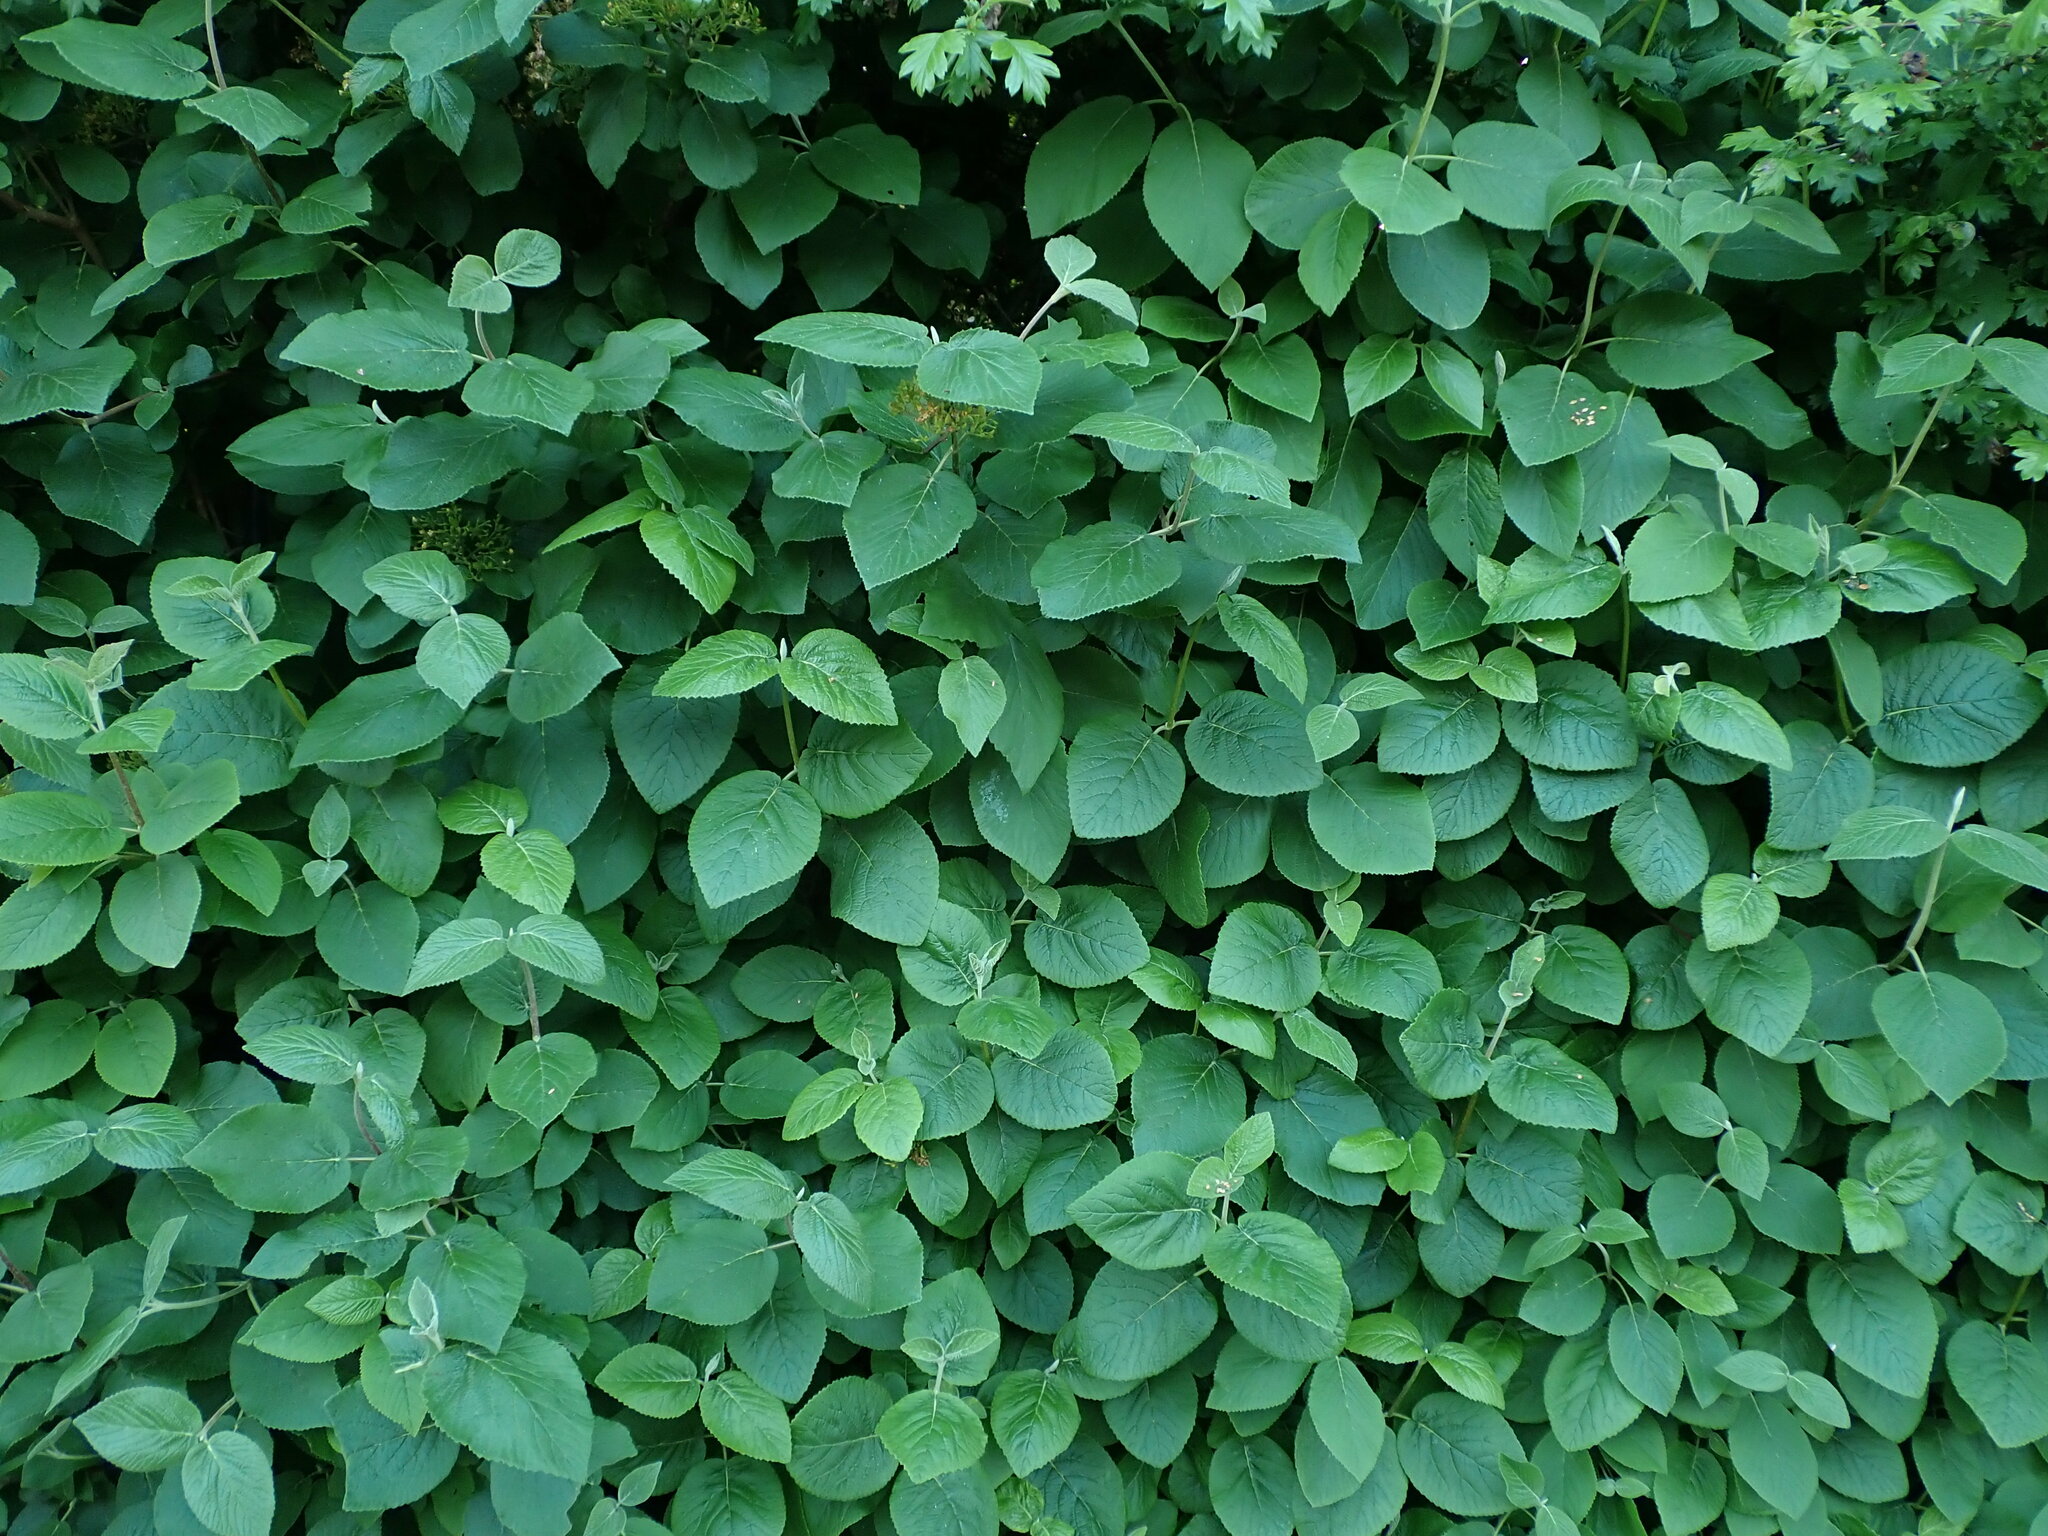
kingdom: Plantae
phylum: Tracheophyta
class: Magnoliopsida
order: Dipsacales
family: Viburnaceae
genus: Viburnum
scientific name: Viburnum lantana
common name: Wayfaring tree
